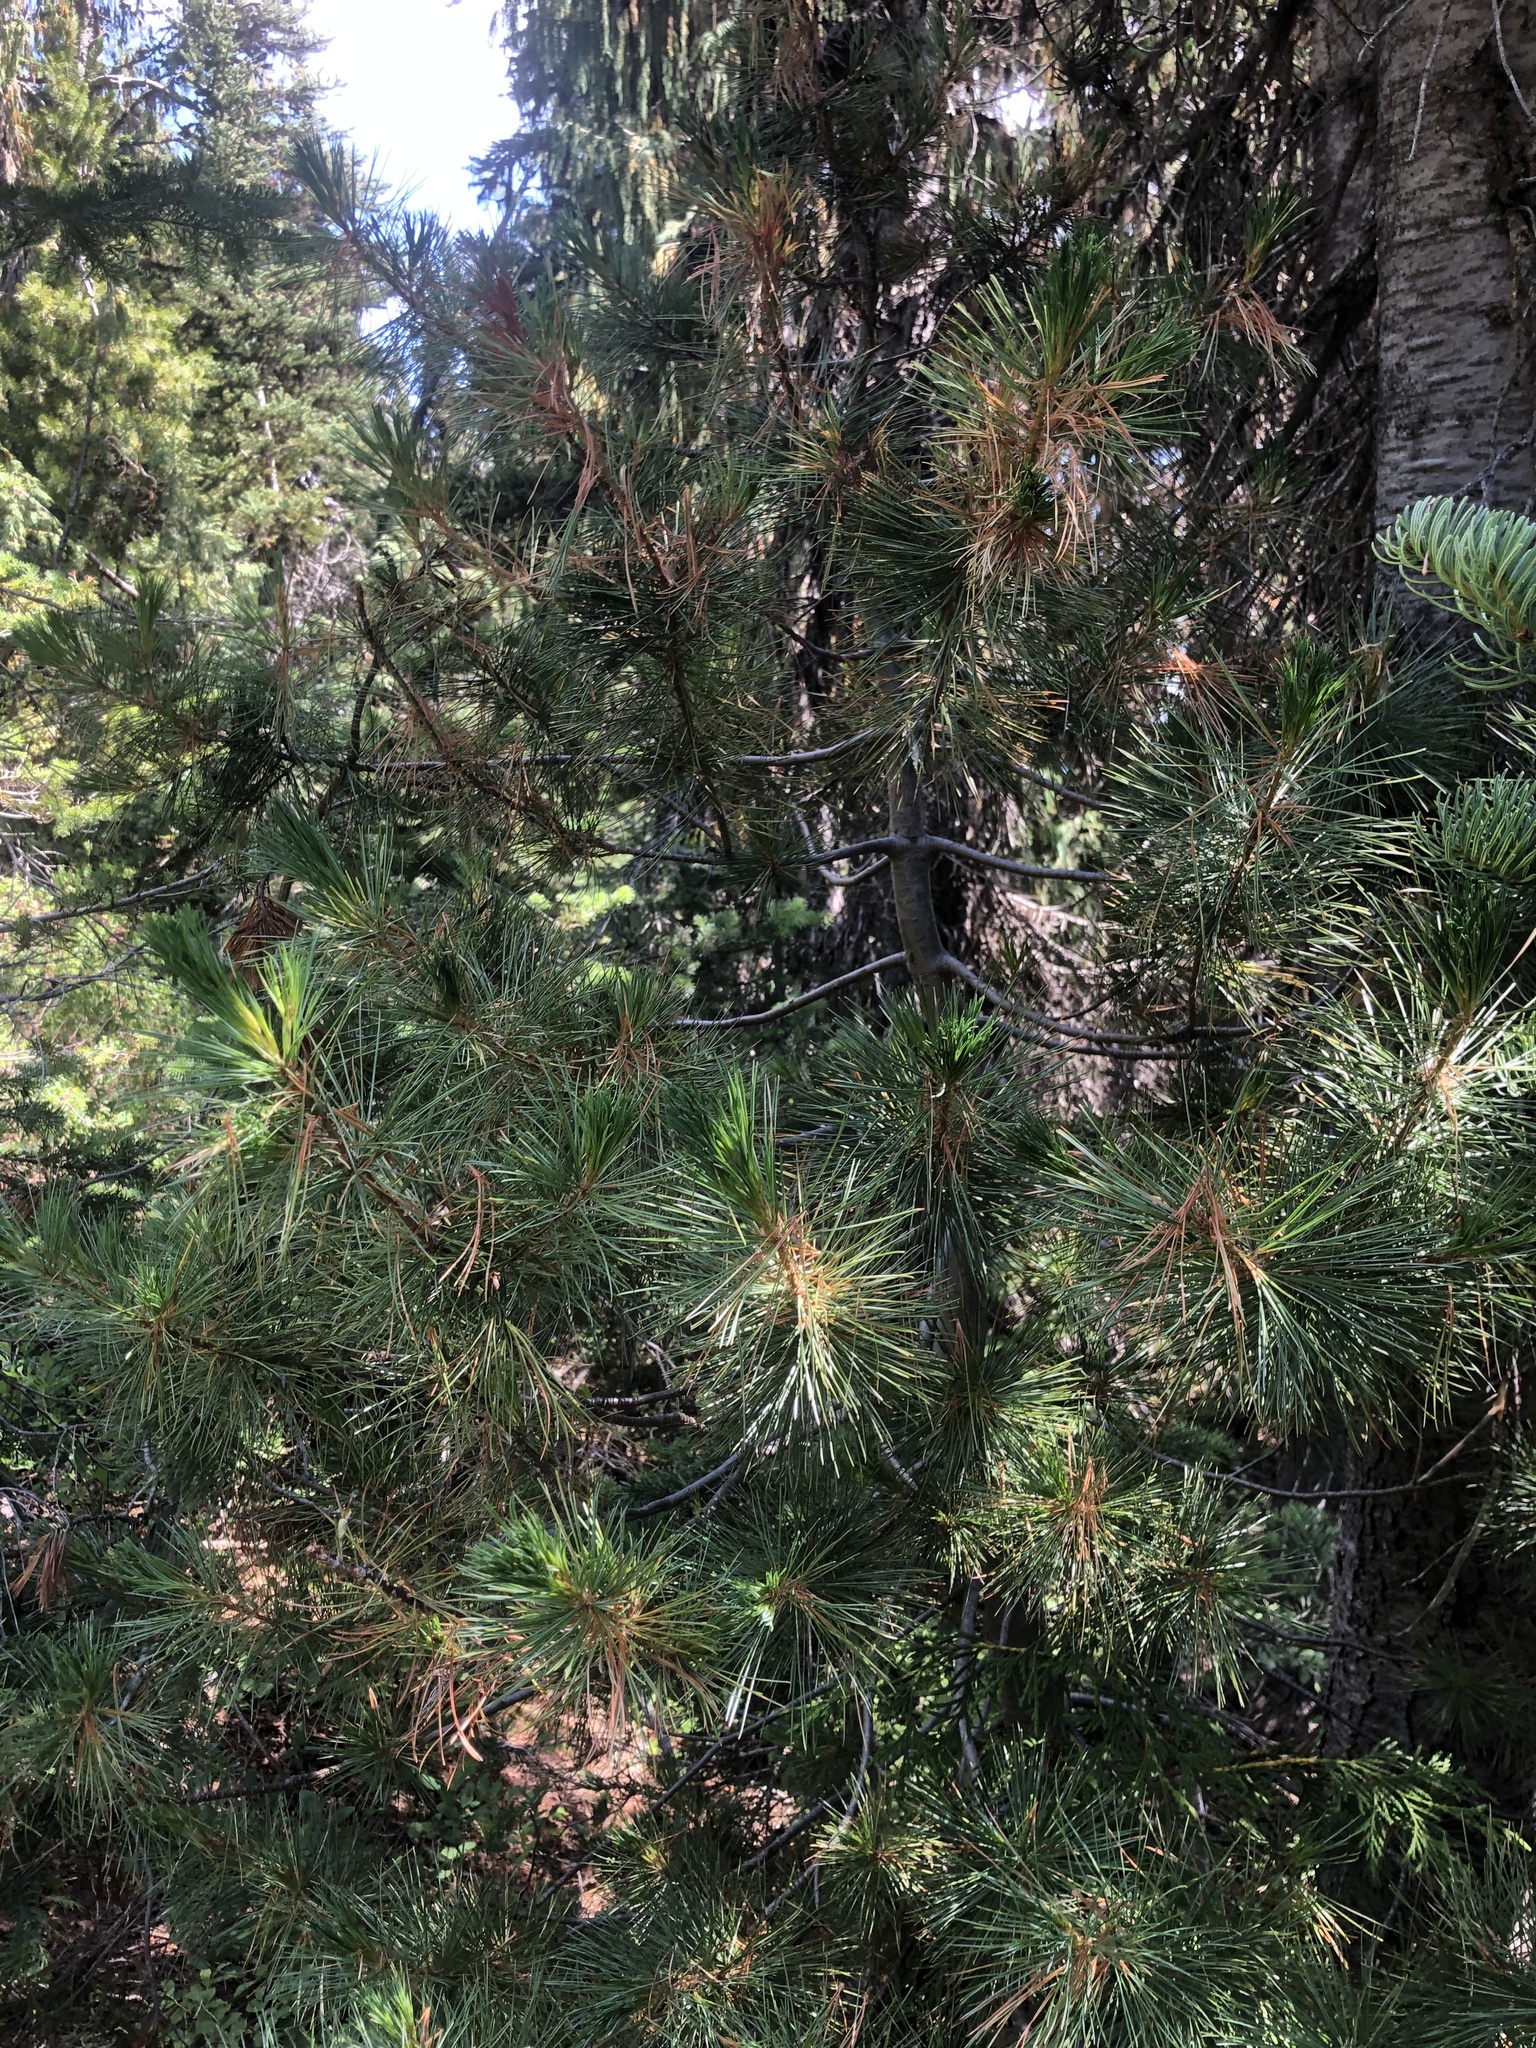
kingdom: Plantae
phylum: Tracheophyta
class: Pinopsida
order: Pinales
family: Pinaceae
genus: Pinus
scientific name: Pinus monticola
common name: Western white pine
